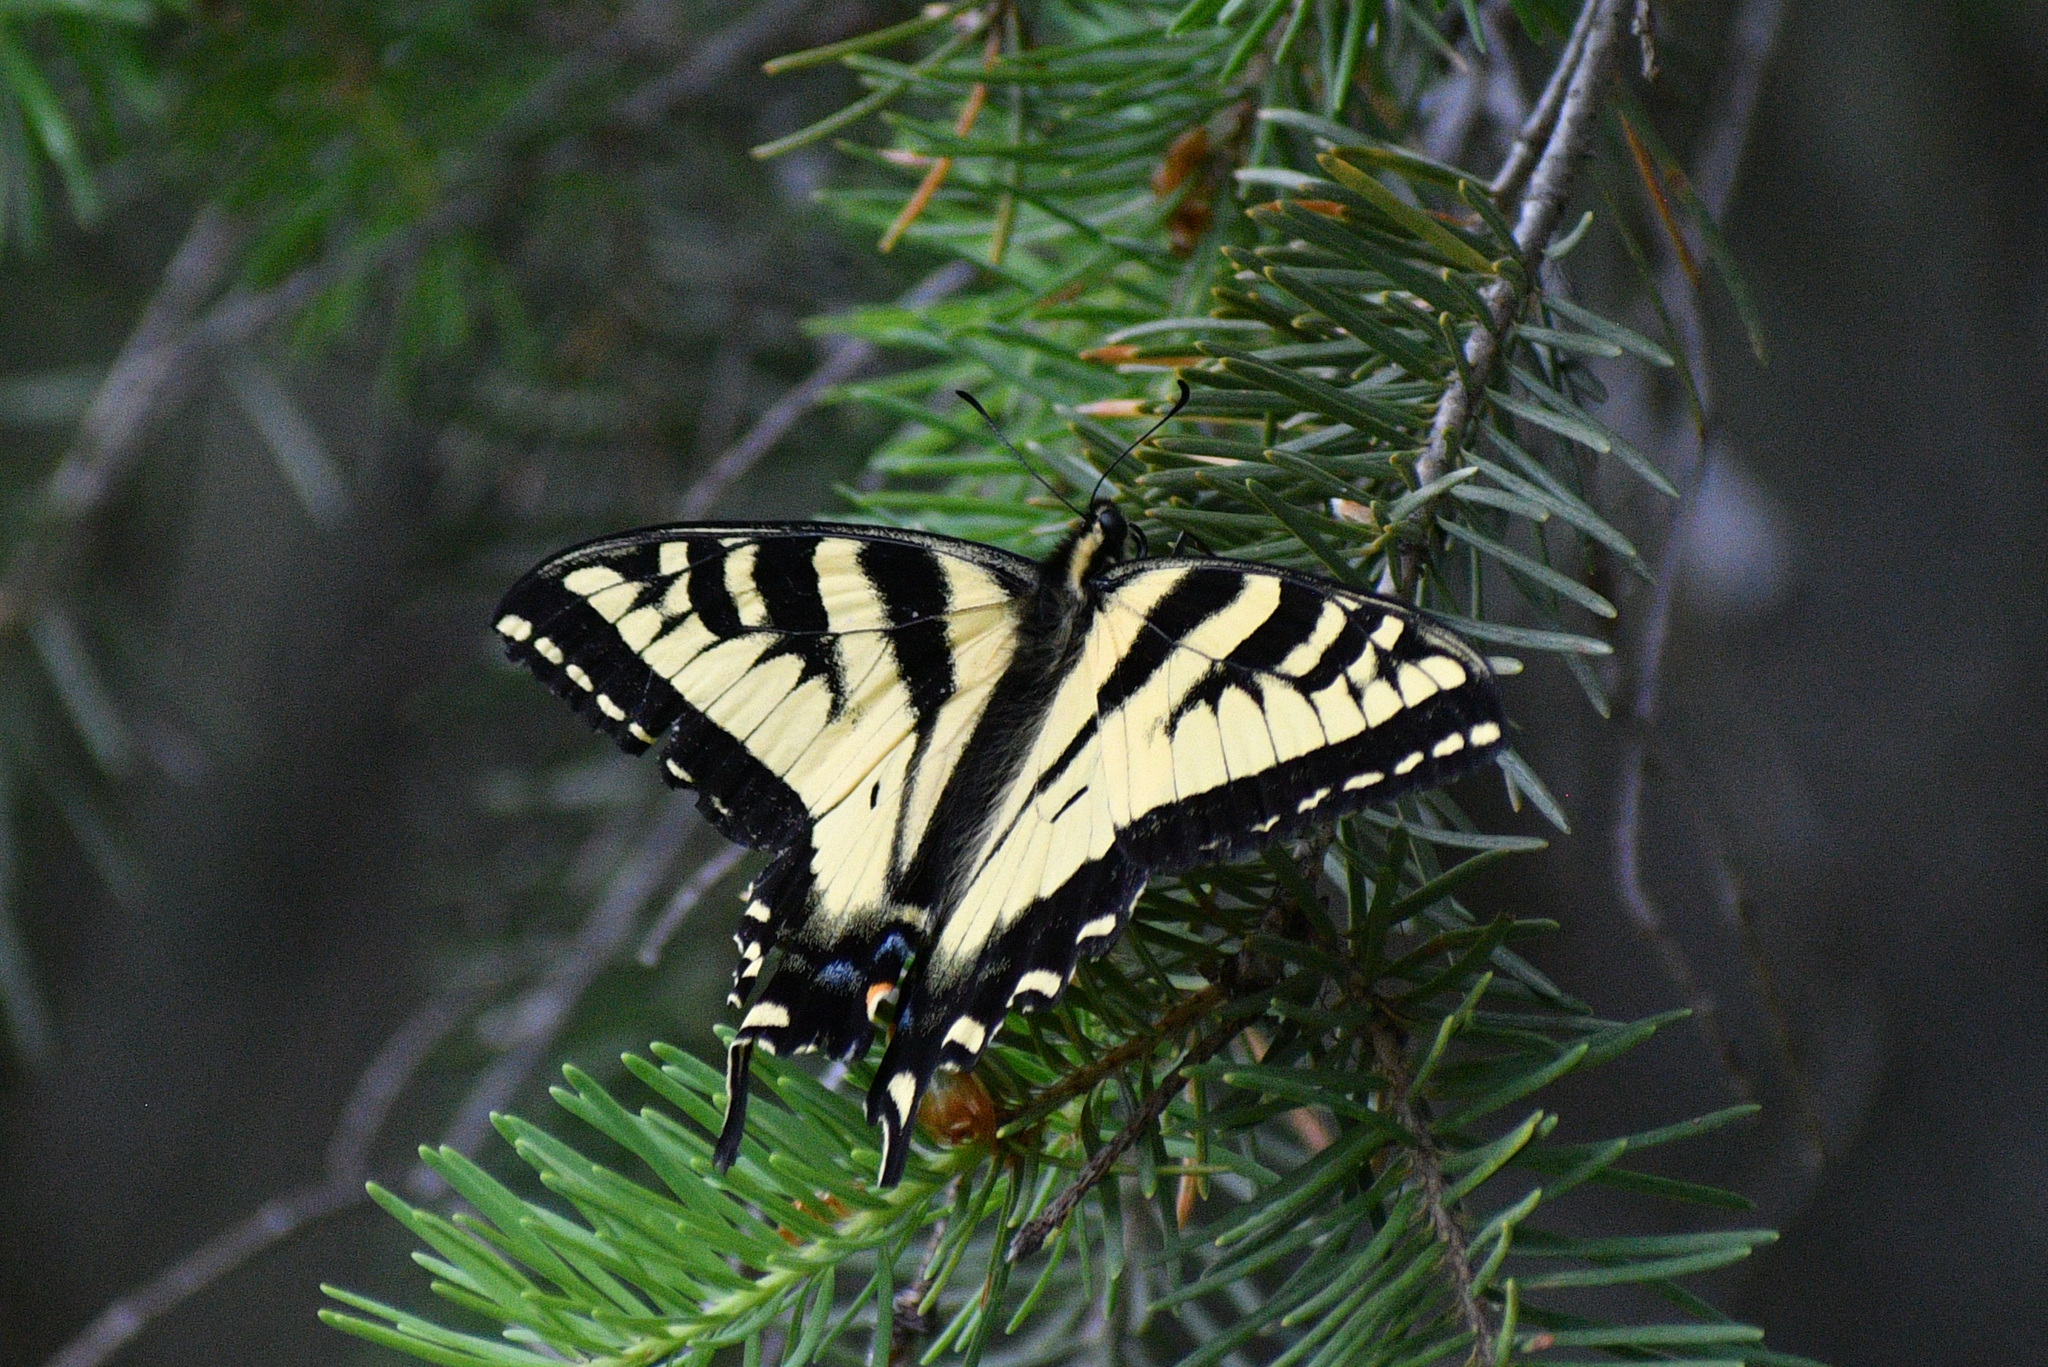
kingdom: Animalia
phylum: Arthropoda
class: Insecta
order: Lepidoptera
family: Papilionidae
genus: Papilio
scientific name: Papilio rutulus
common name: Western tiger swallowtail
